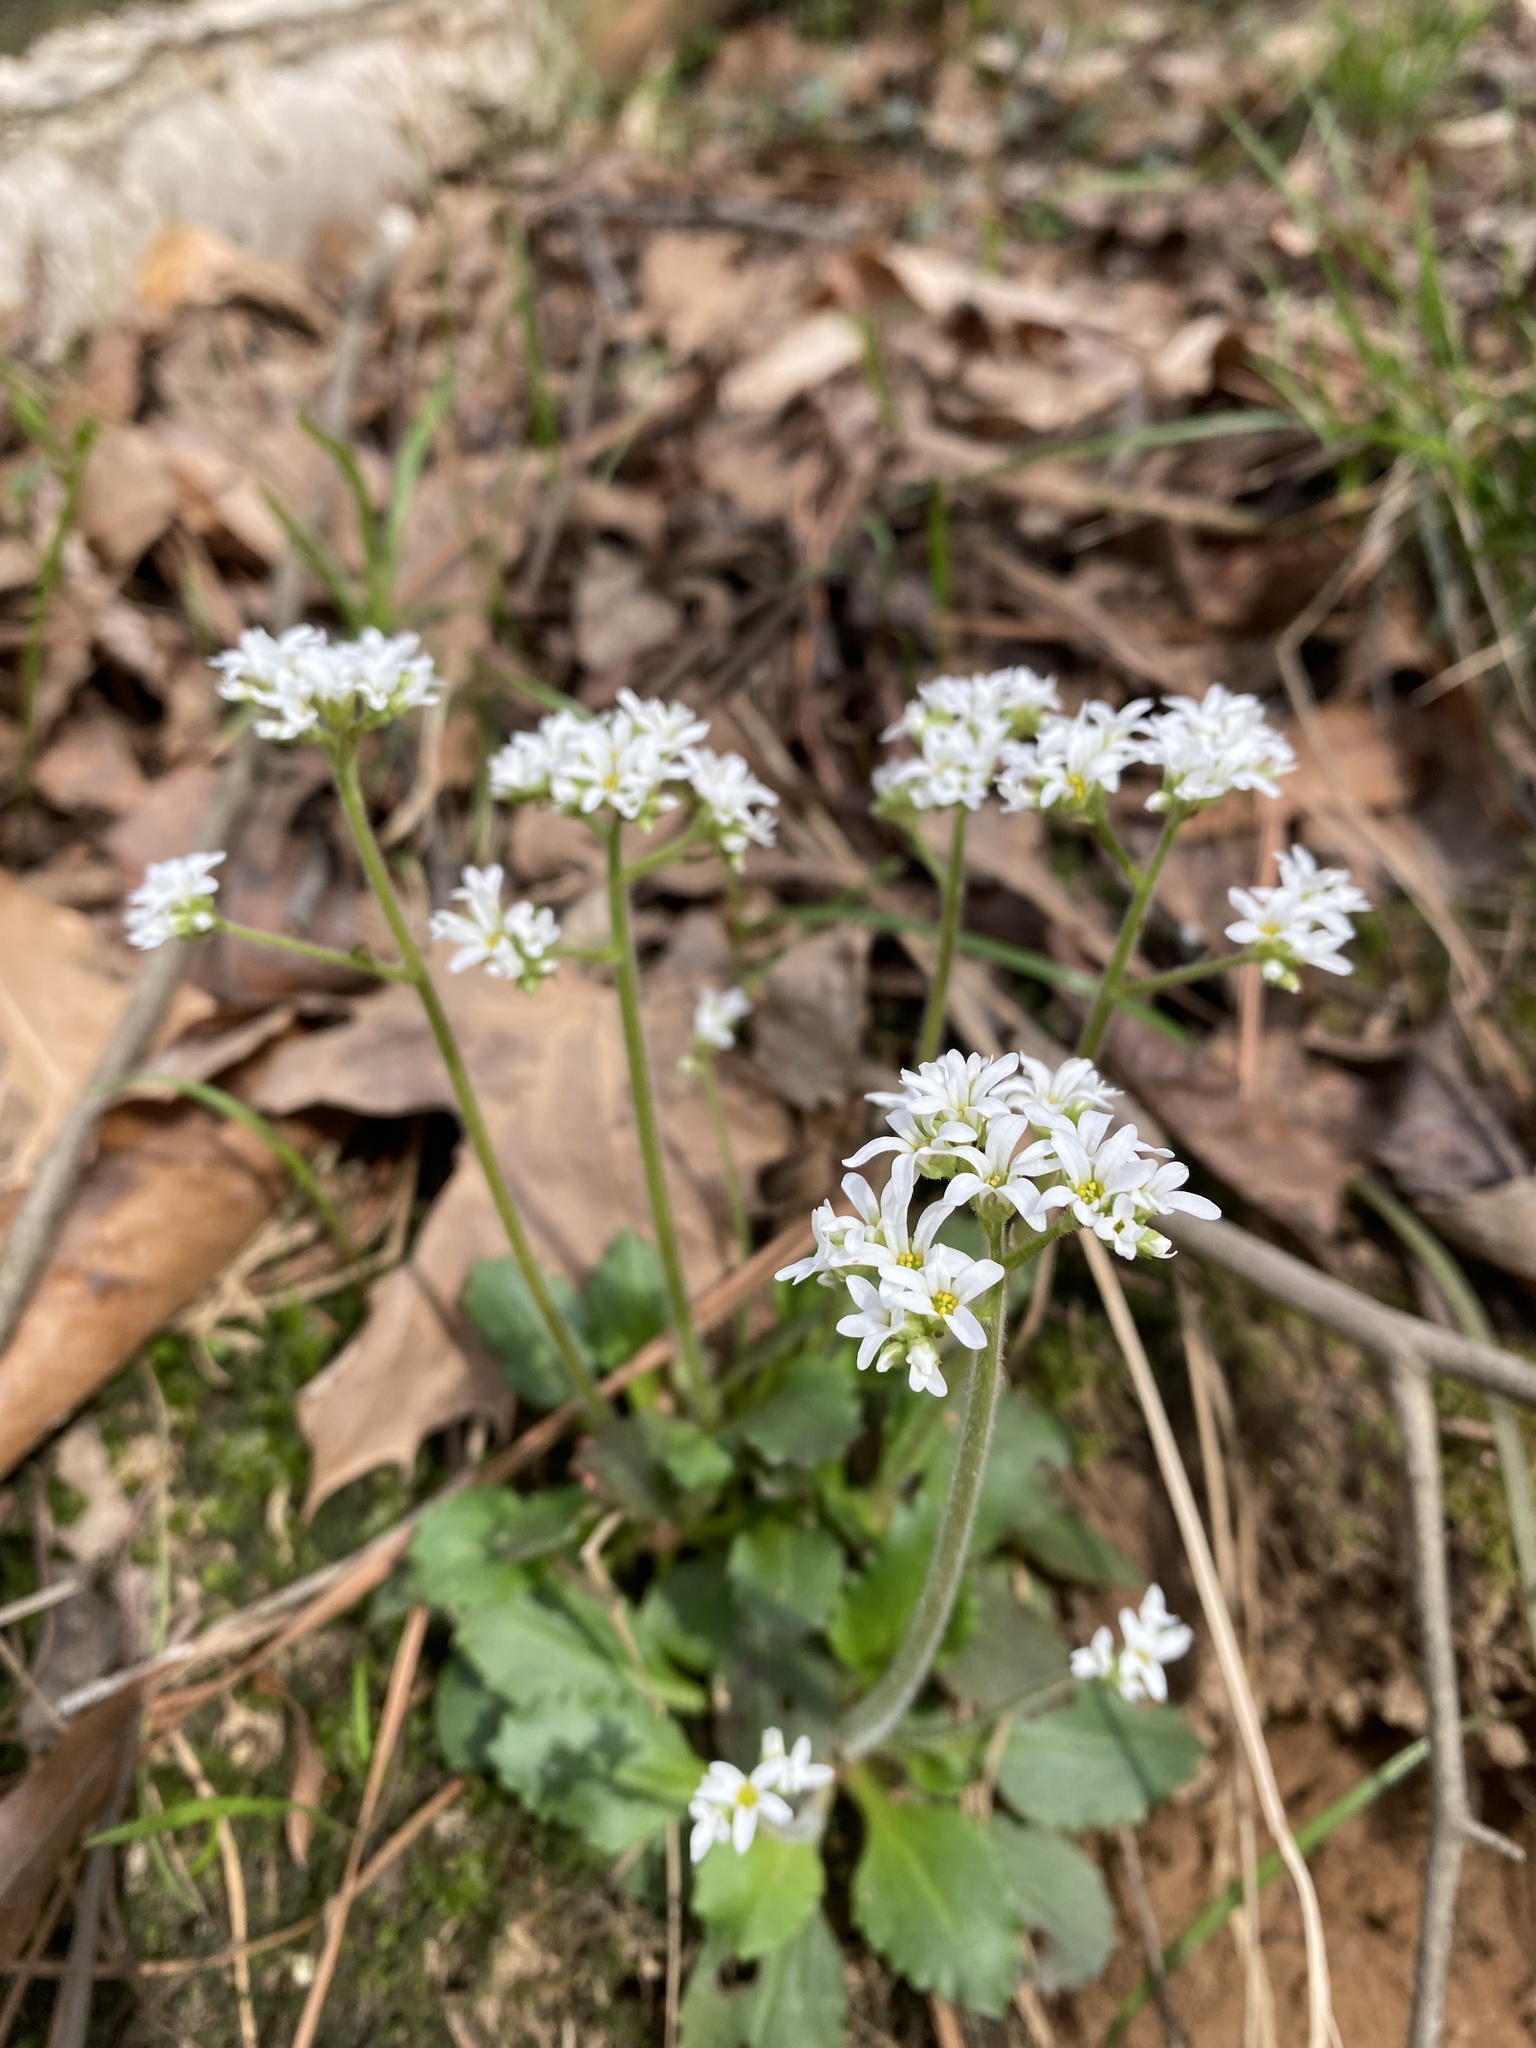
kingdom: Plantae
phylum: Tracheophyta
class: Magnoliopsida
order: Saxifragales
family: Saxifragaceae
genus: Micranthes
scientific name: Micranthes virginiensis
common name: Early saxifrage
